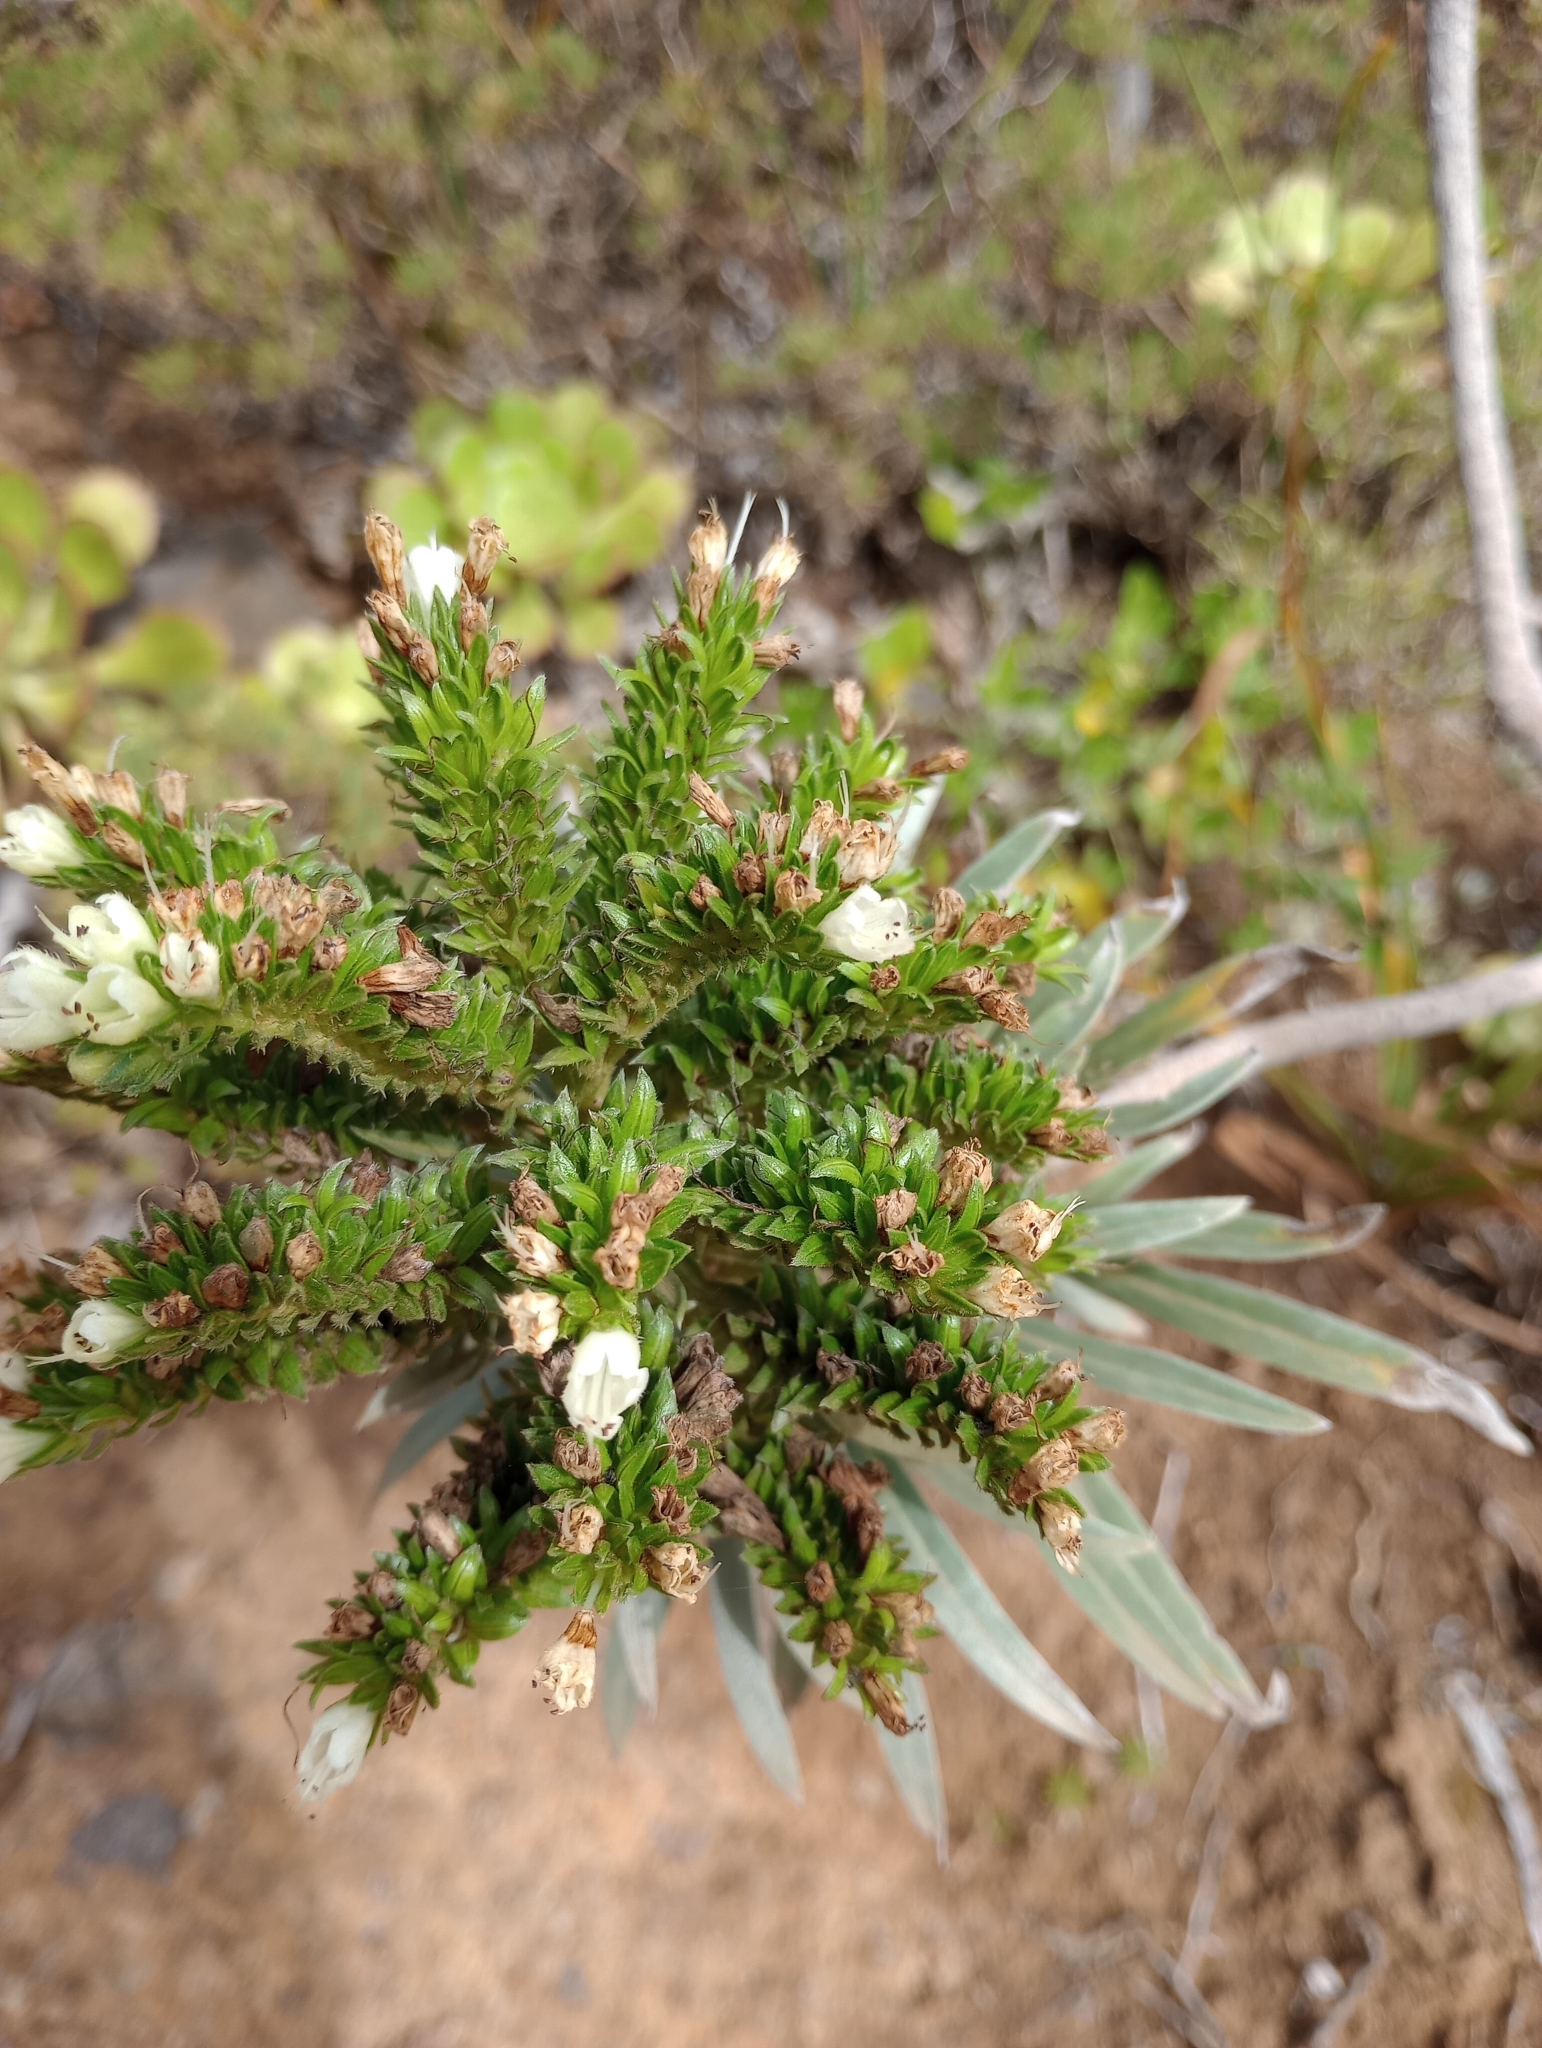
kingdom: Plantae
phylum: Tracheophyta
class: Magnoliopsida
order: Boraginales
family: Boraginaceae
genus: Echium
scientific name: Echium leucophaeum
